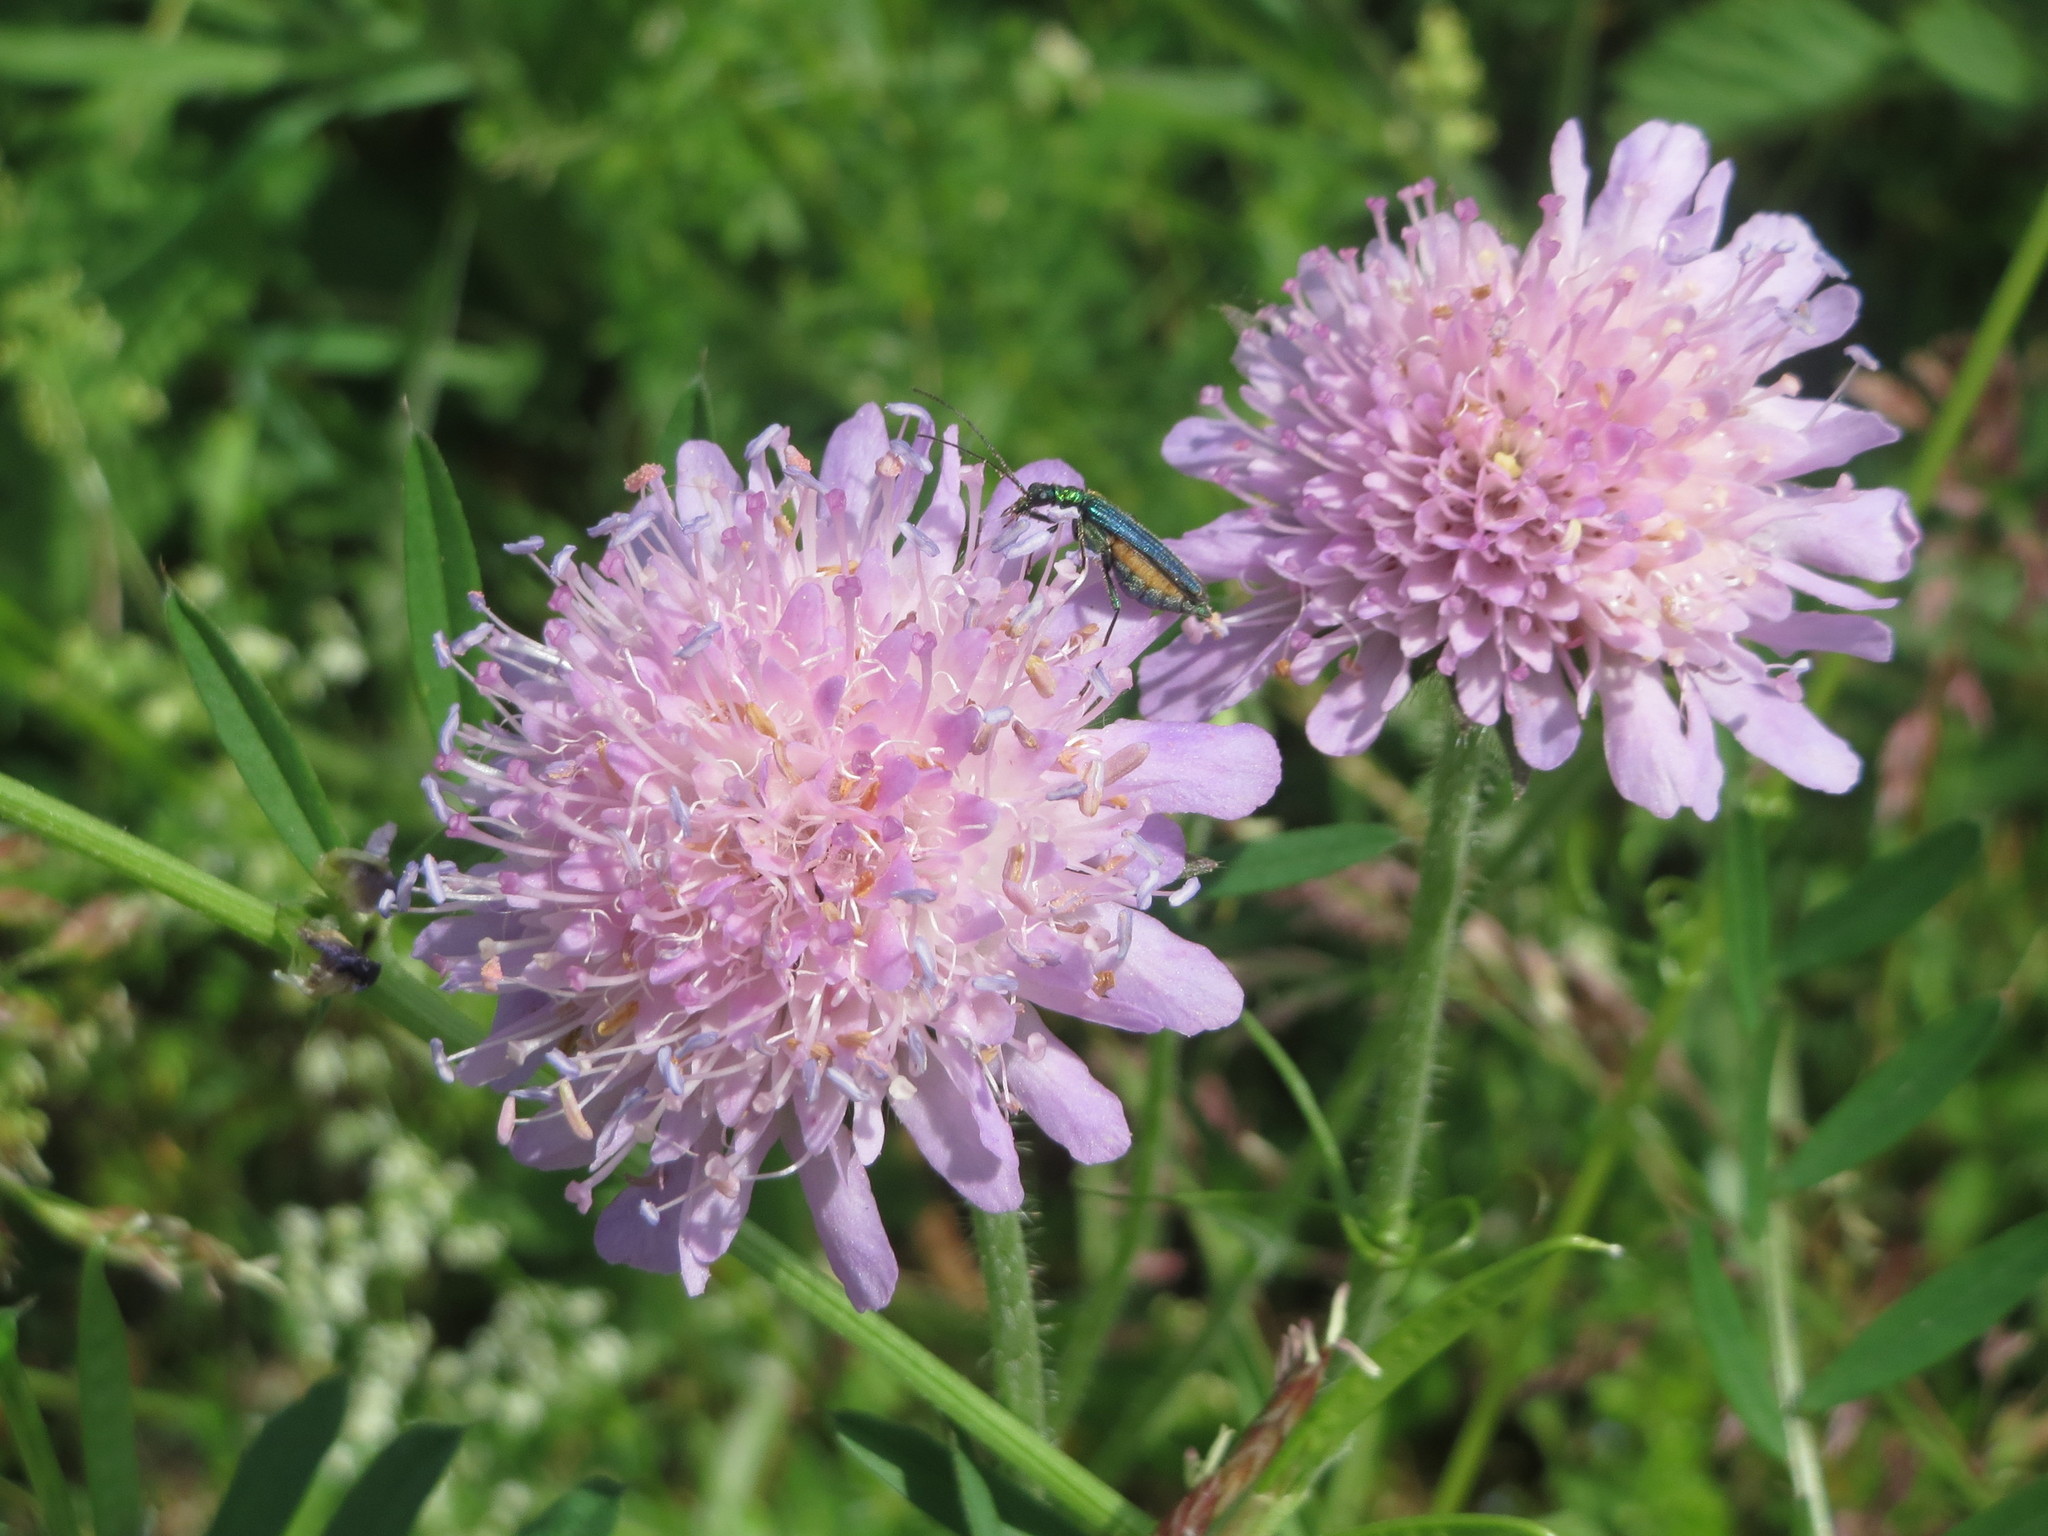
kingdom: Plantae
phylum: Tracheophyta
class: Magnoliopsida
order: Dipsacales
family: Caprifoliaceae
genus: Knautia
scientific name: Knautia arvensis
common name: Field scabiosa
